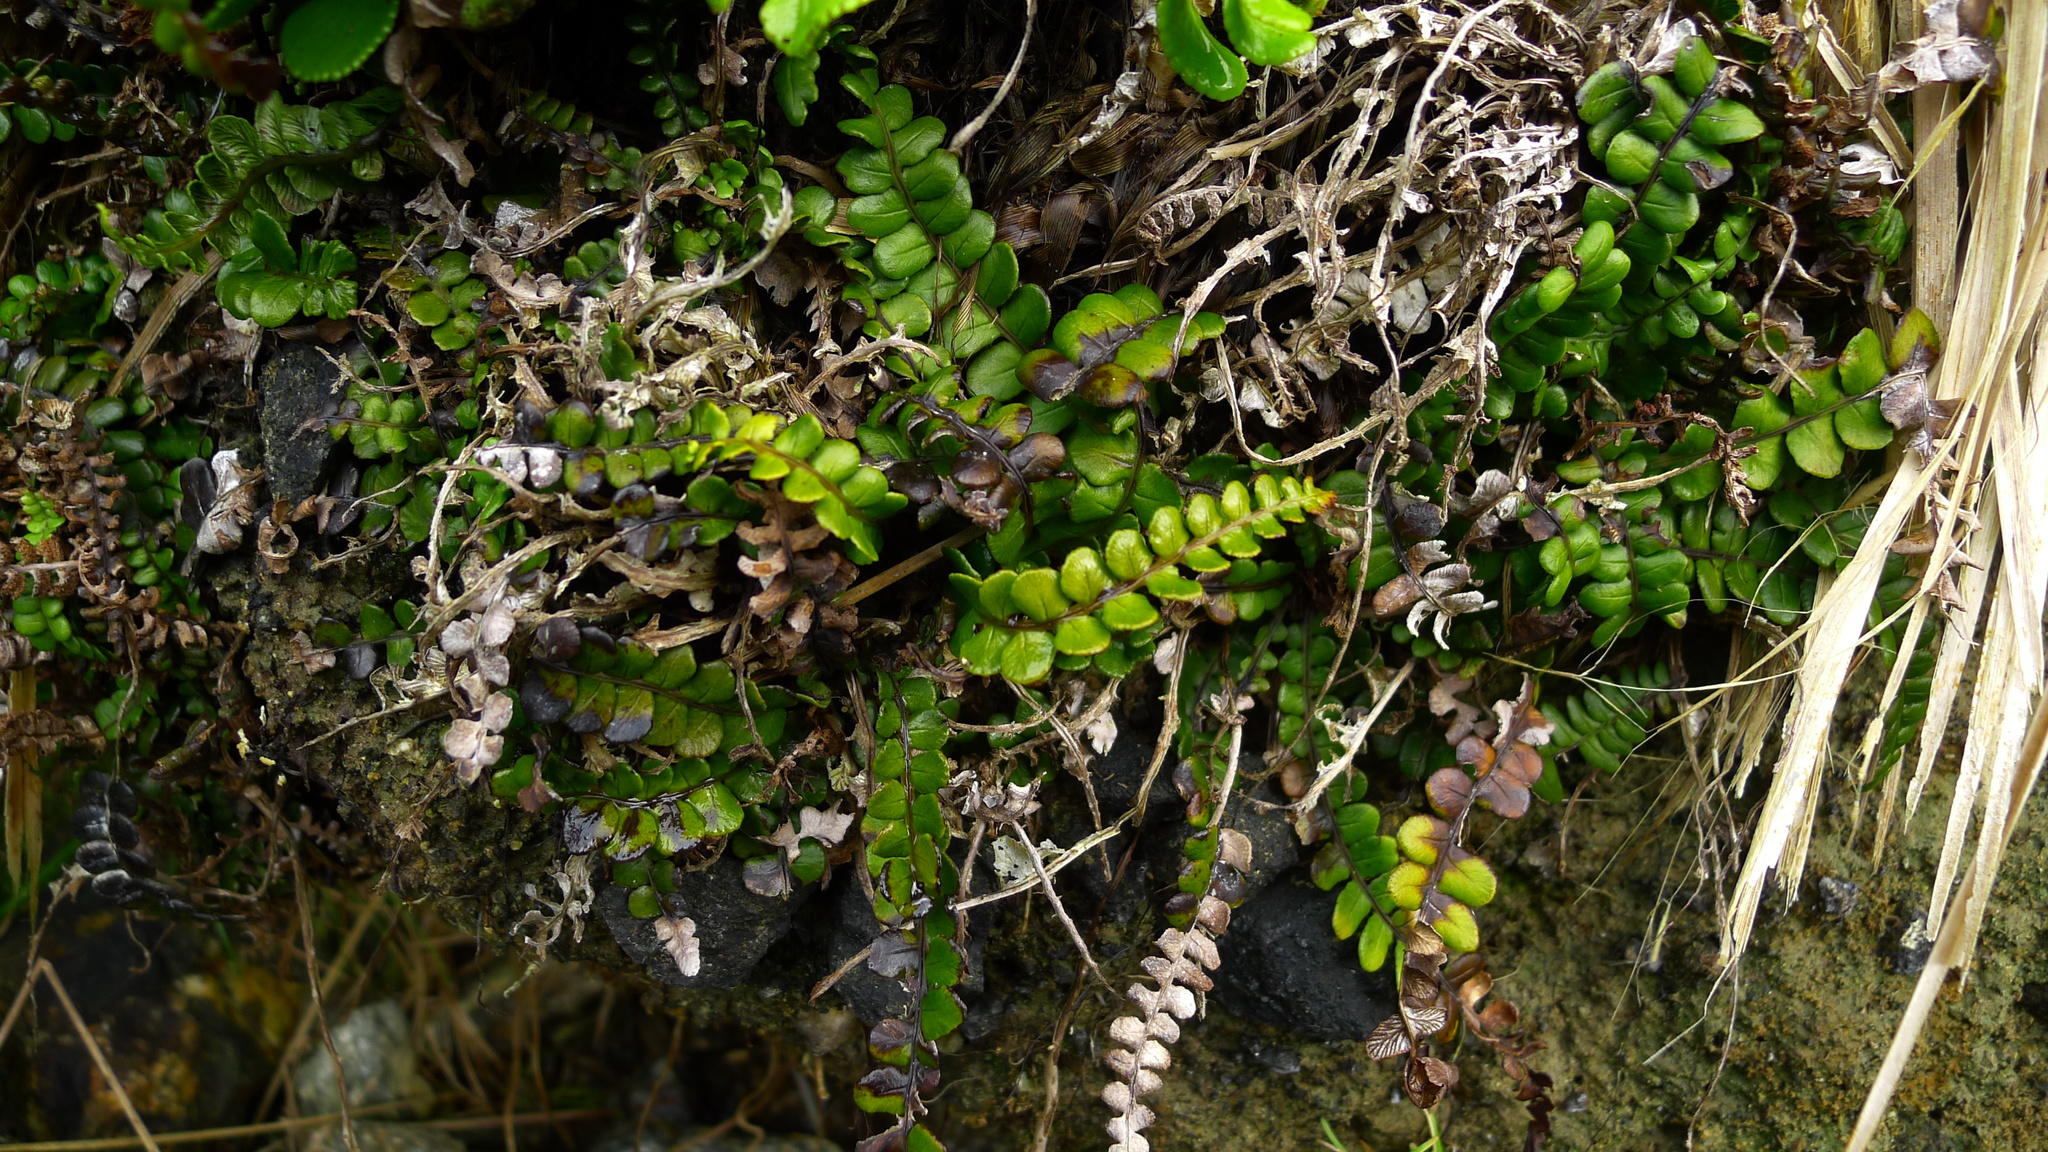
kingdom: Plantae
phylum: Tracheophyta
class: Polypodiopsida
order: Polypodiales
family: Blechnaceae
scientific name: Blechnaceae
